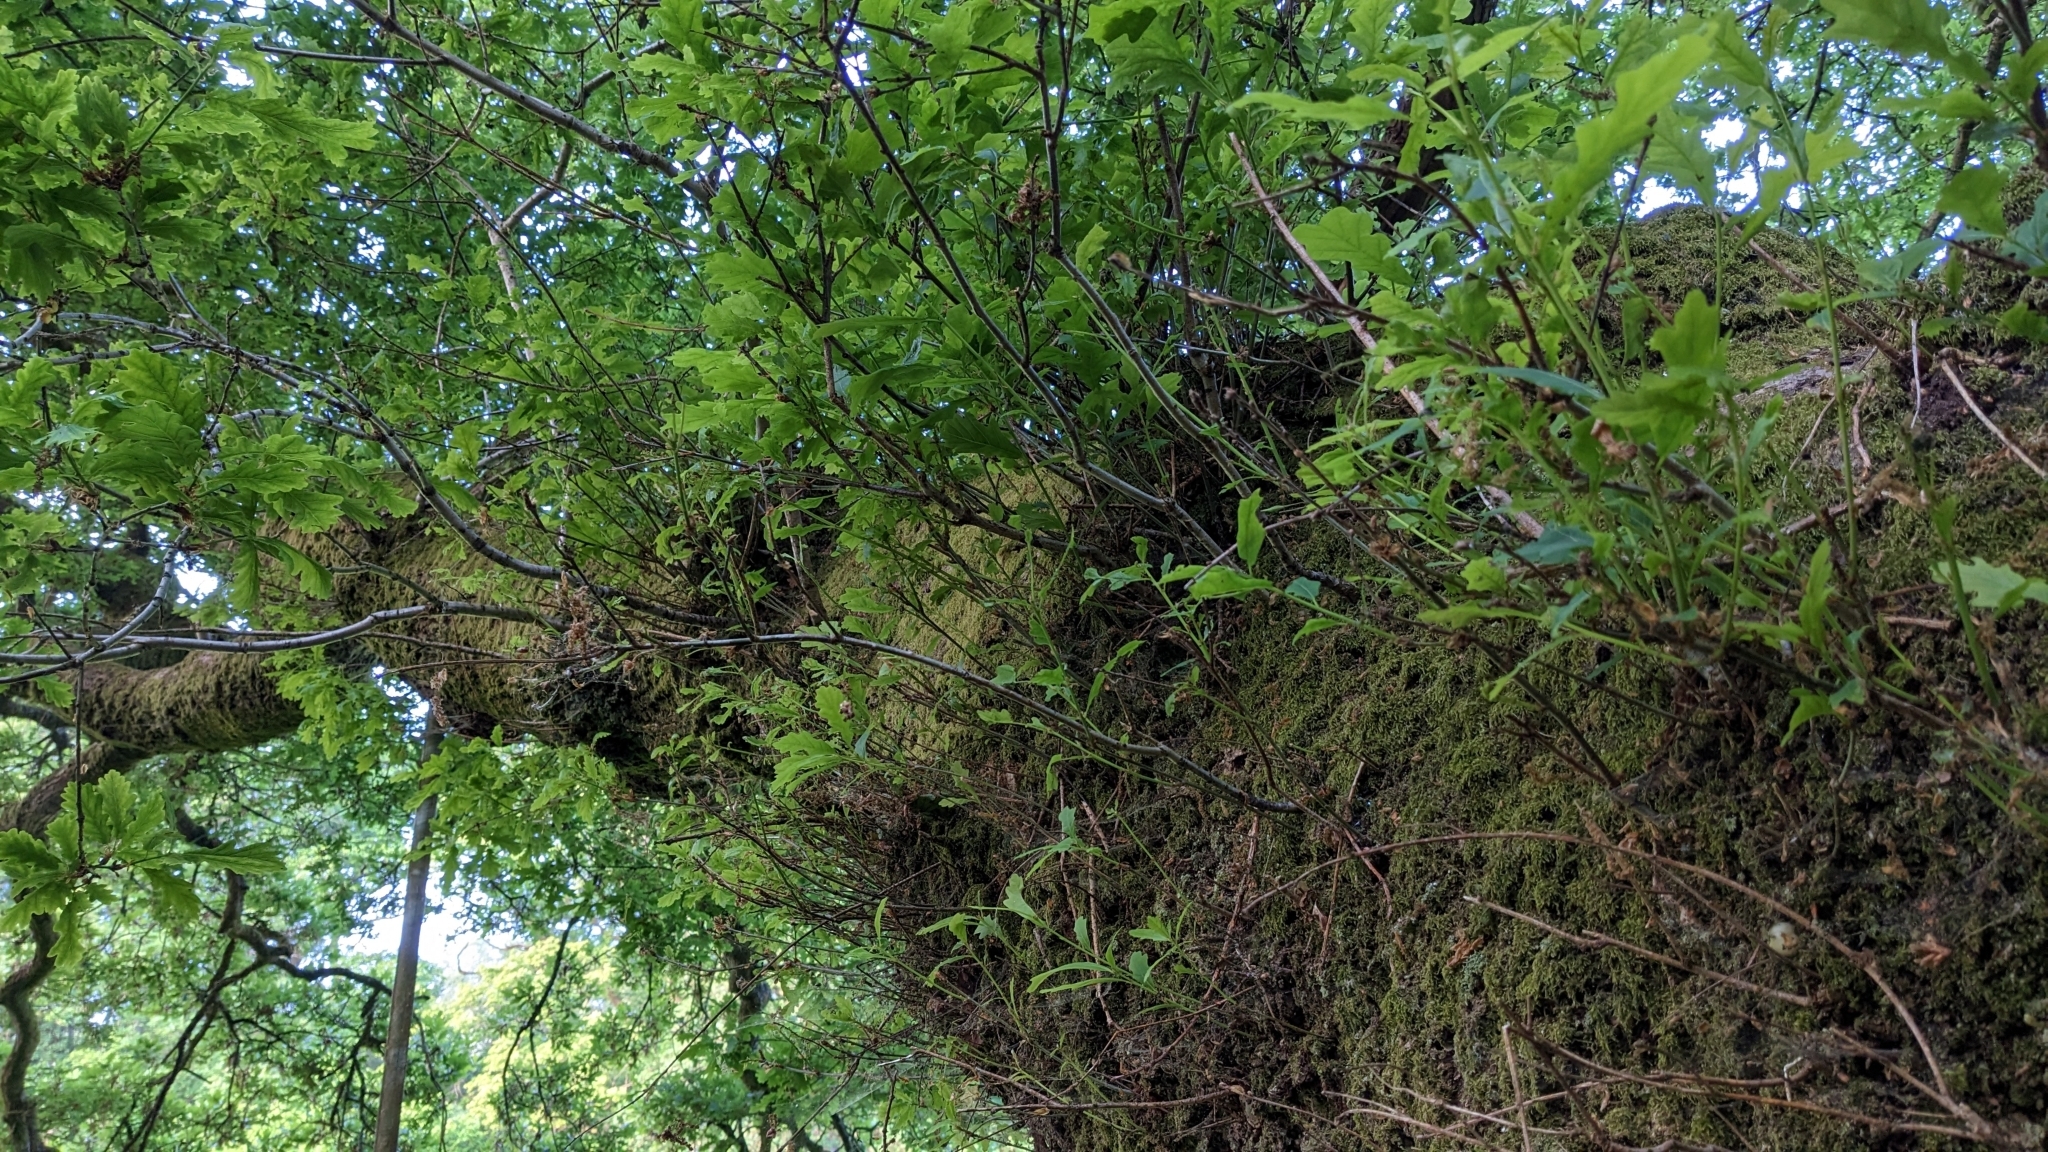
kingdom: Animalia
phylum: Arthropoda
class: Insecta
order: Hymenoptera
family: Cynipidae
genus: Trigonaspis
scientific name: Trigonaspis megaptera
